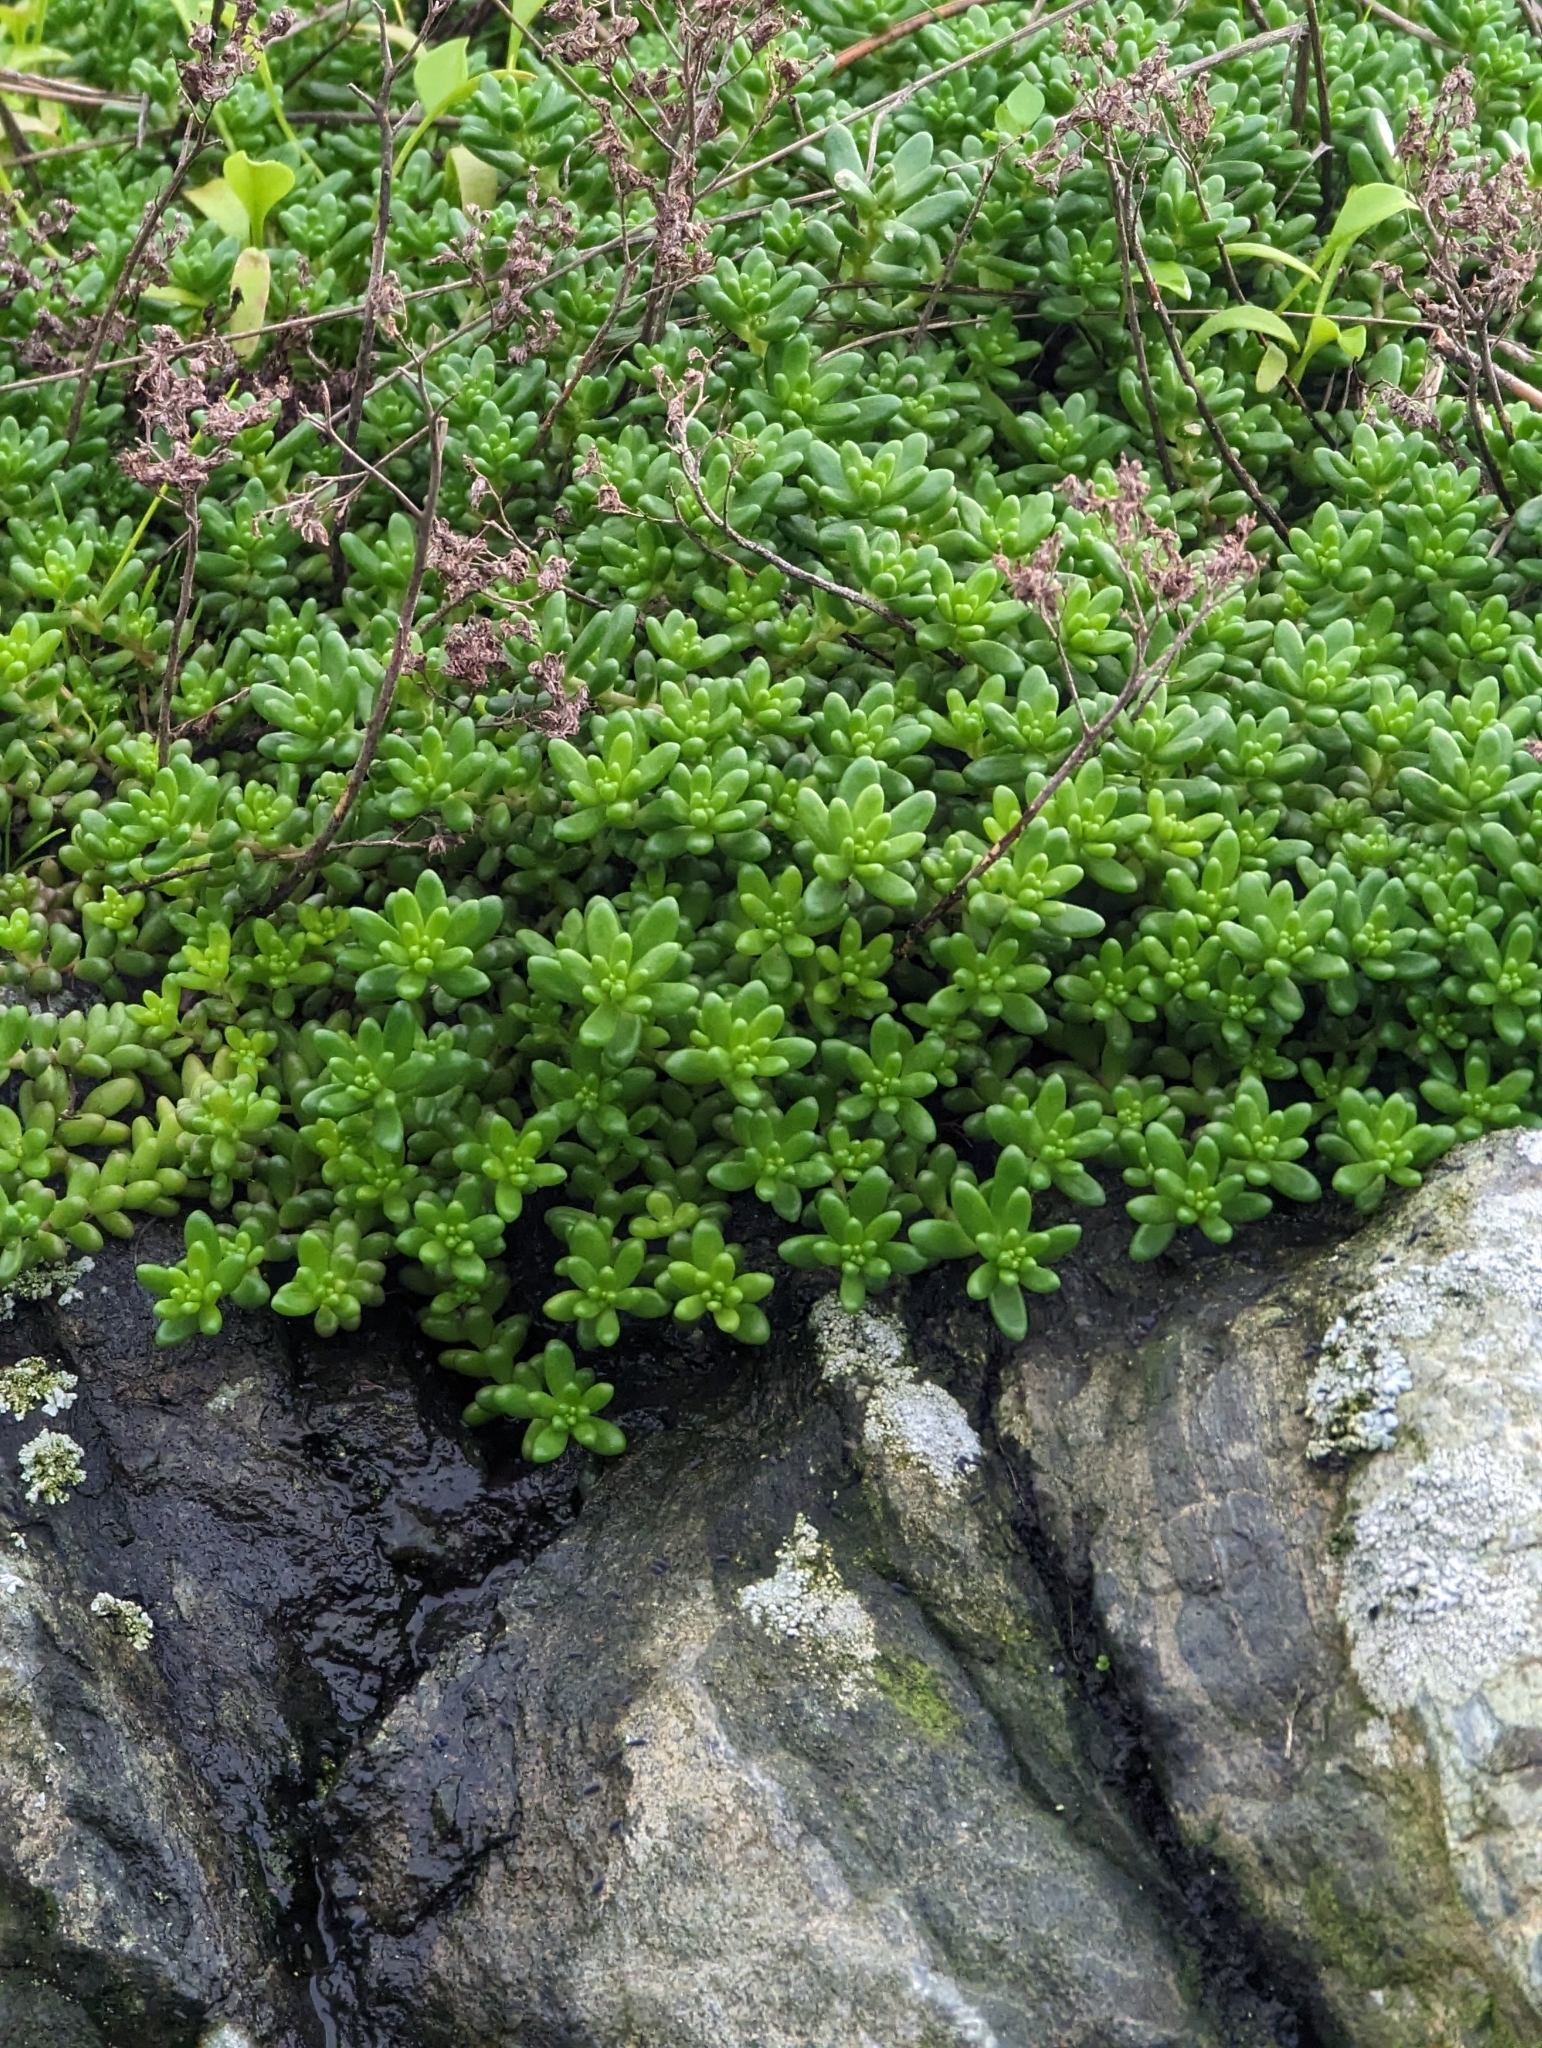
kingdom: Plantae
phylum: Tracheophyta
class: Magnoliopsida
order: Saxifragales
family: Crassulaceae
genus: Sedum
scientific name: Sedum album
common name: White stonecrop
